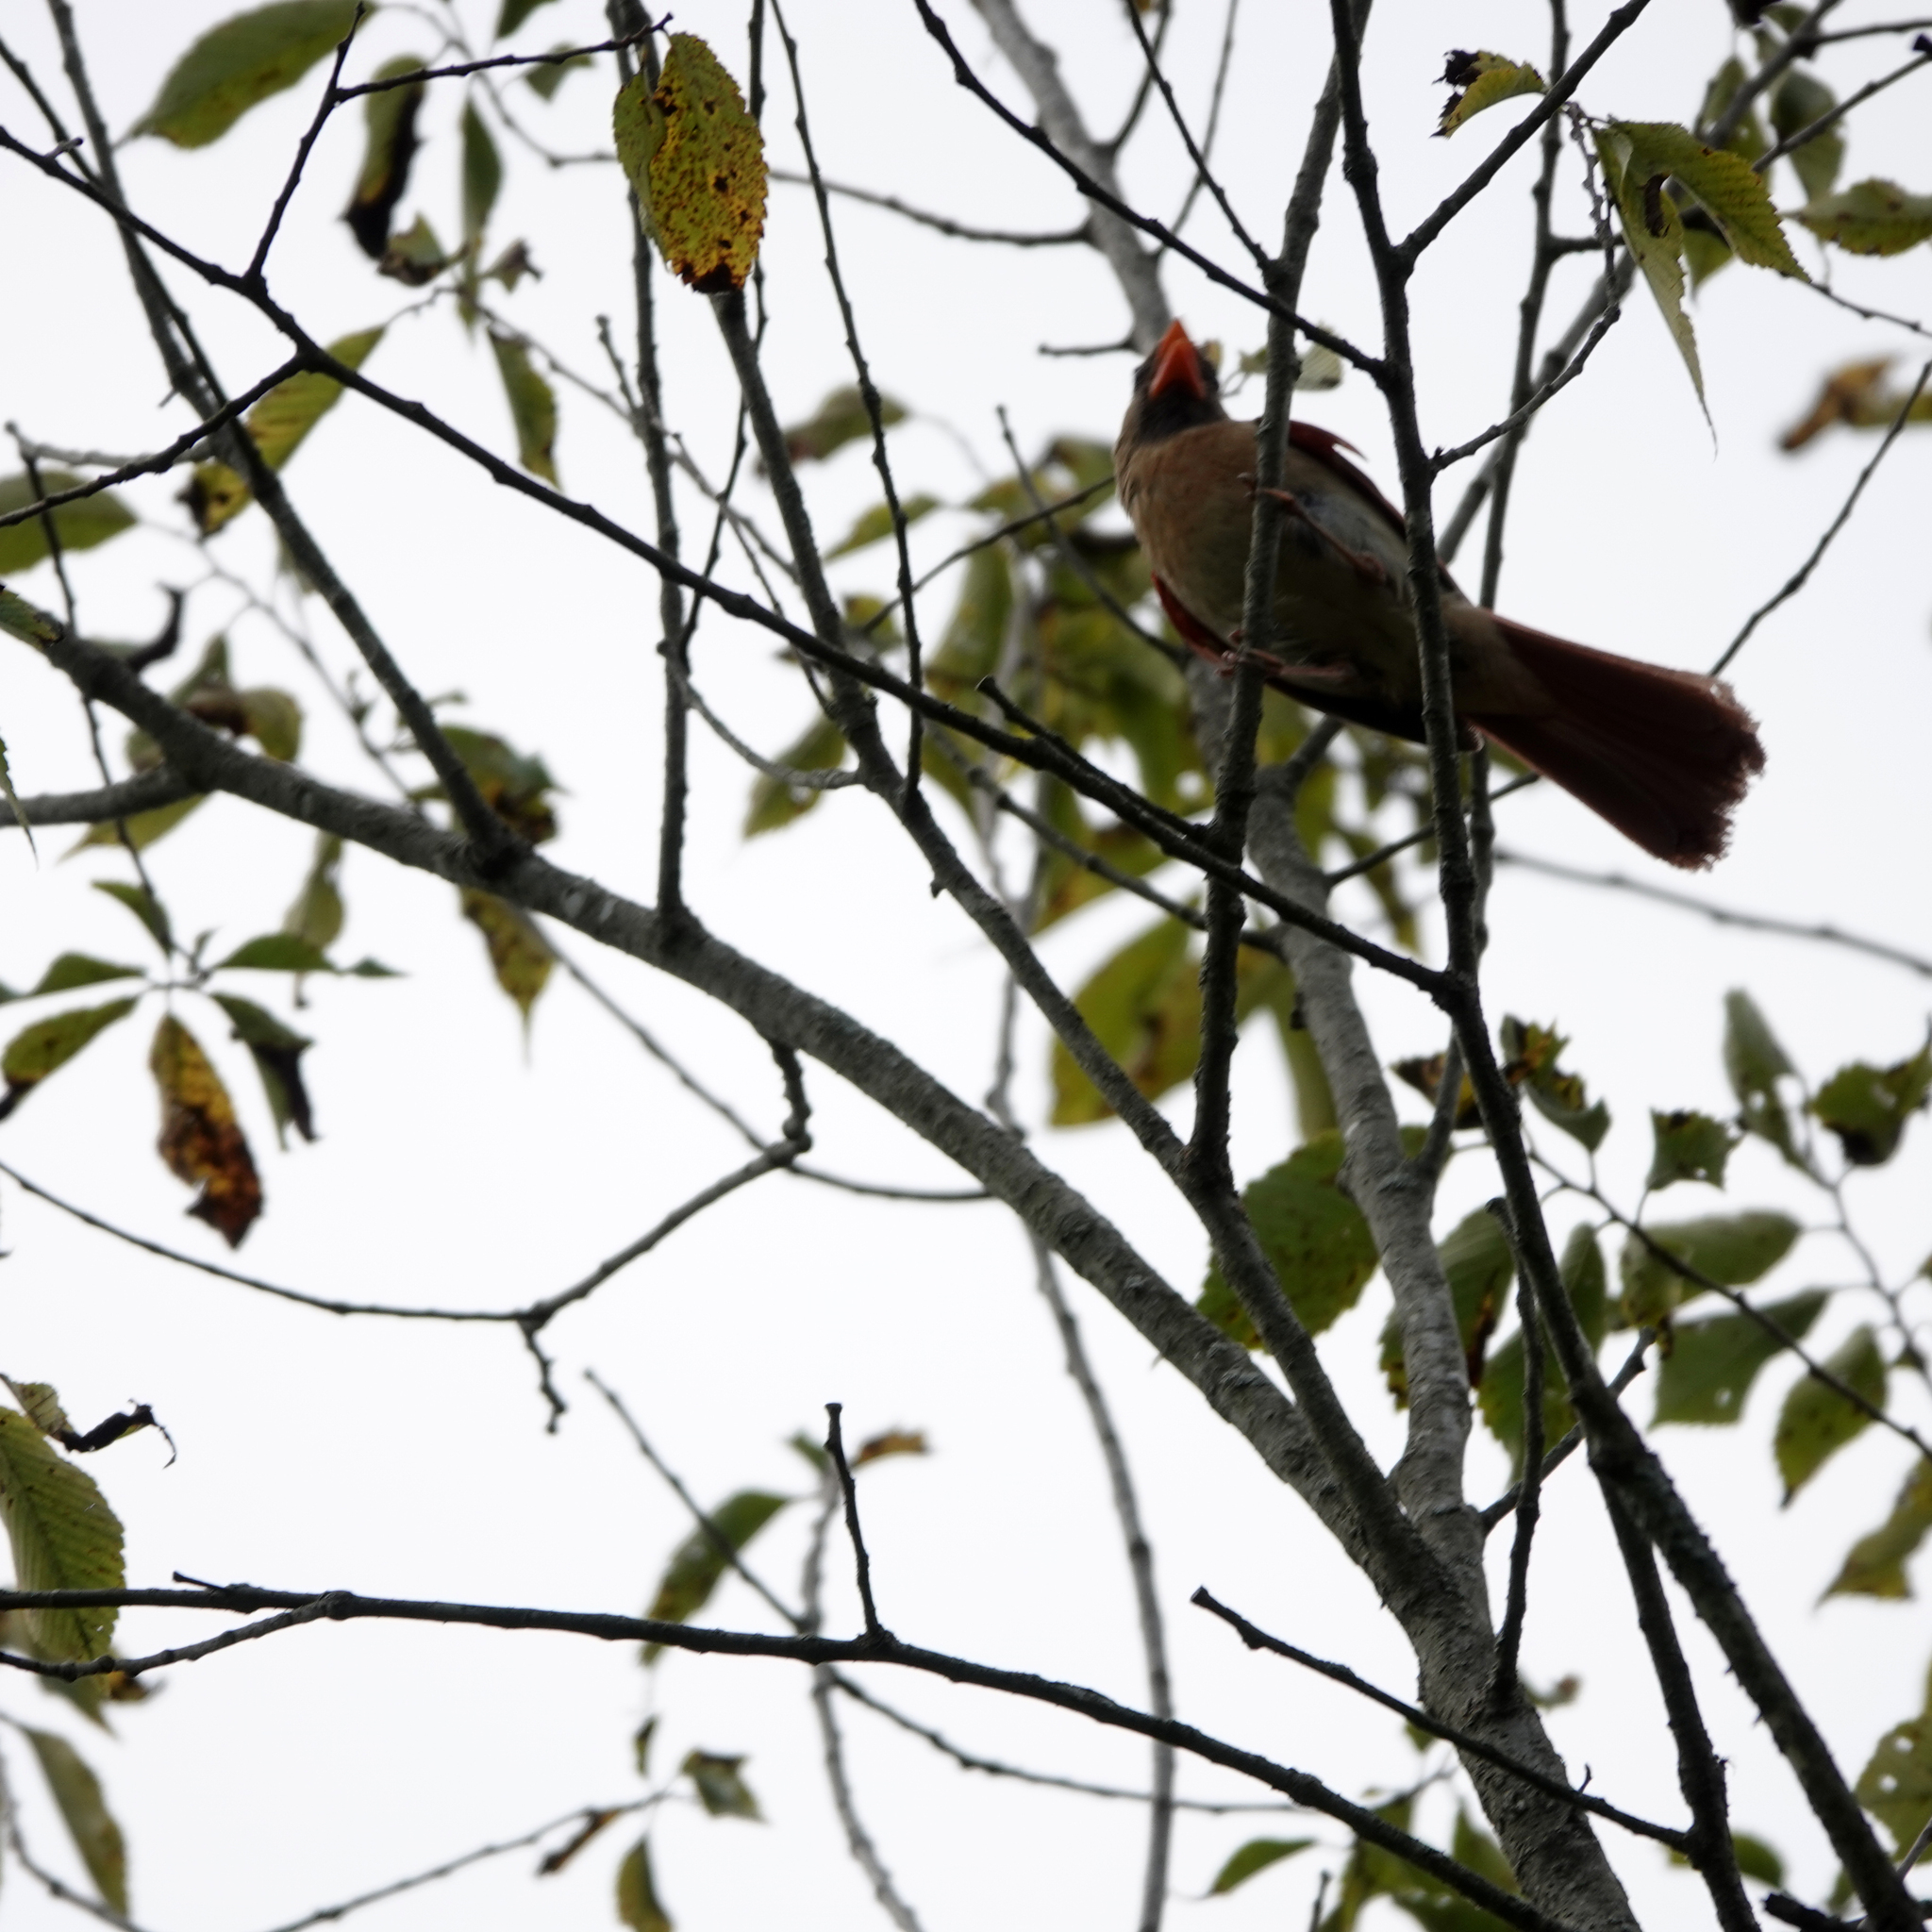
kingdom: Animalia
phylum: Chordata
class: Aves
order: Passeriformes
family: Cardinalidae
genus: Cardinalis
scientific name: Cardinalis cardinalis
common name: Northern cardinal
